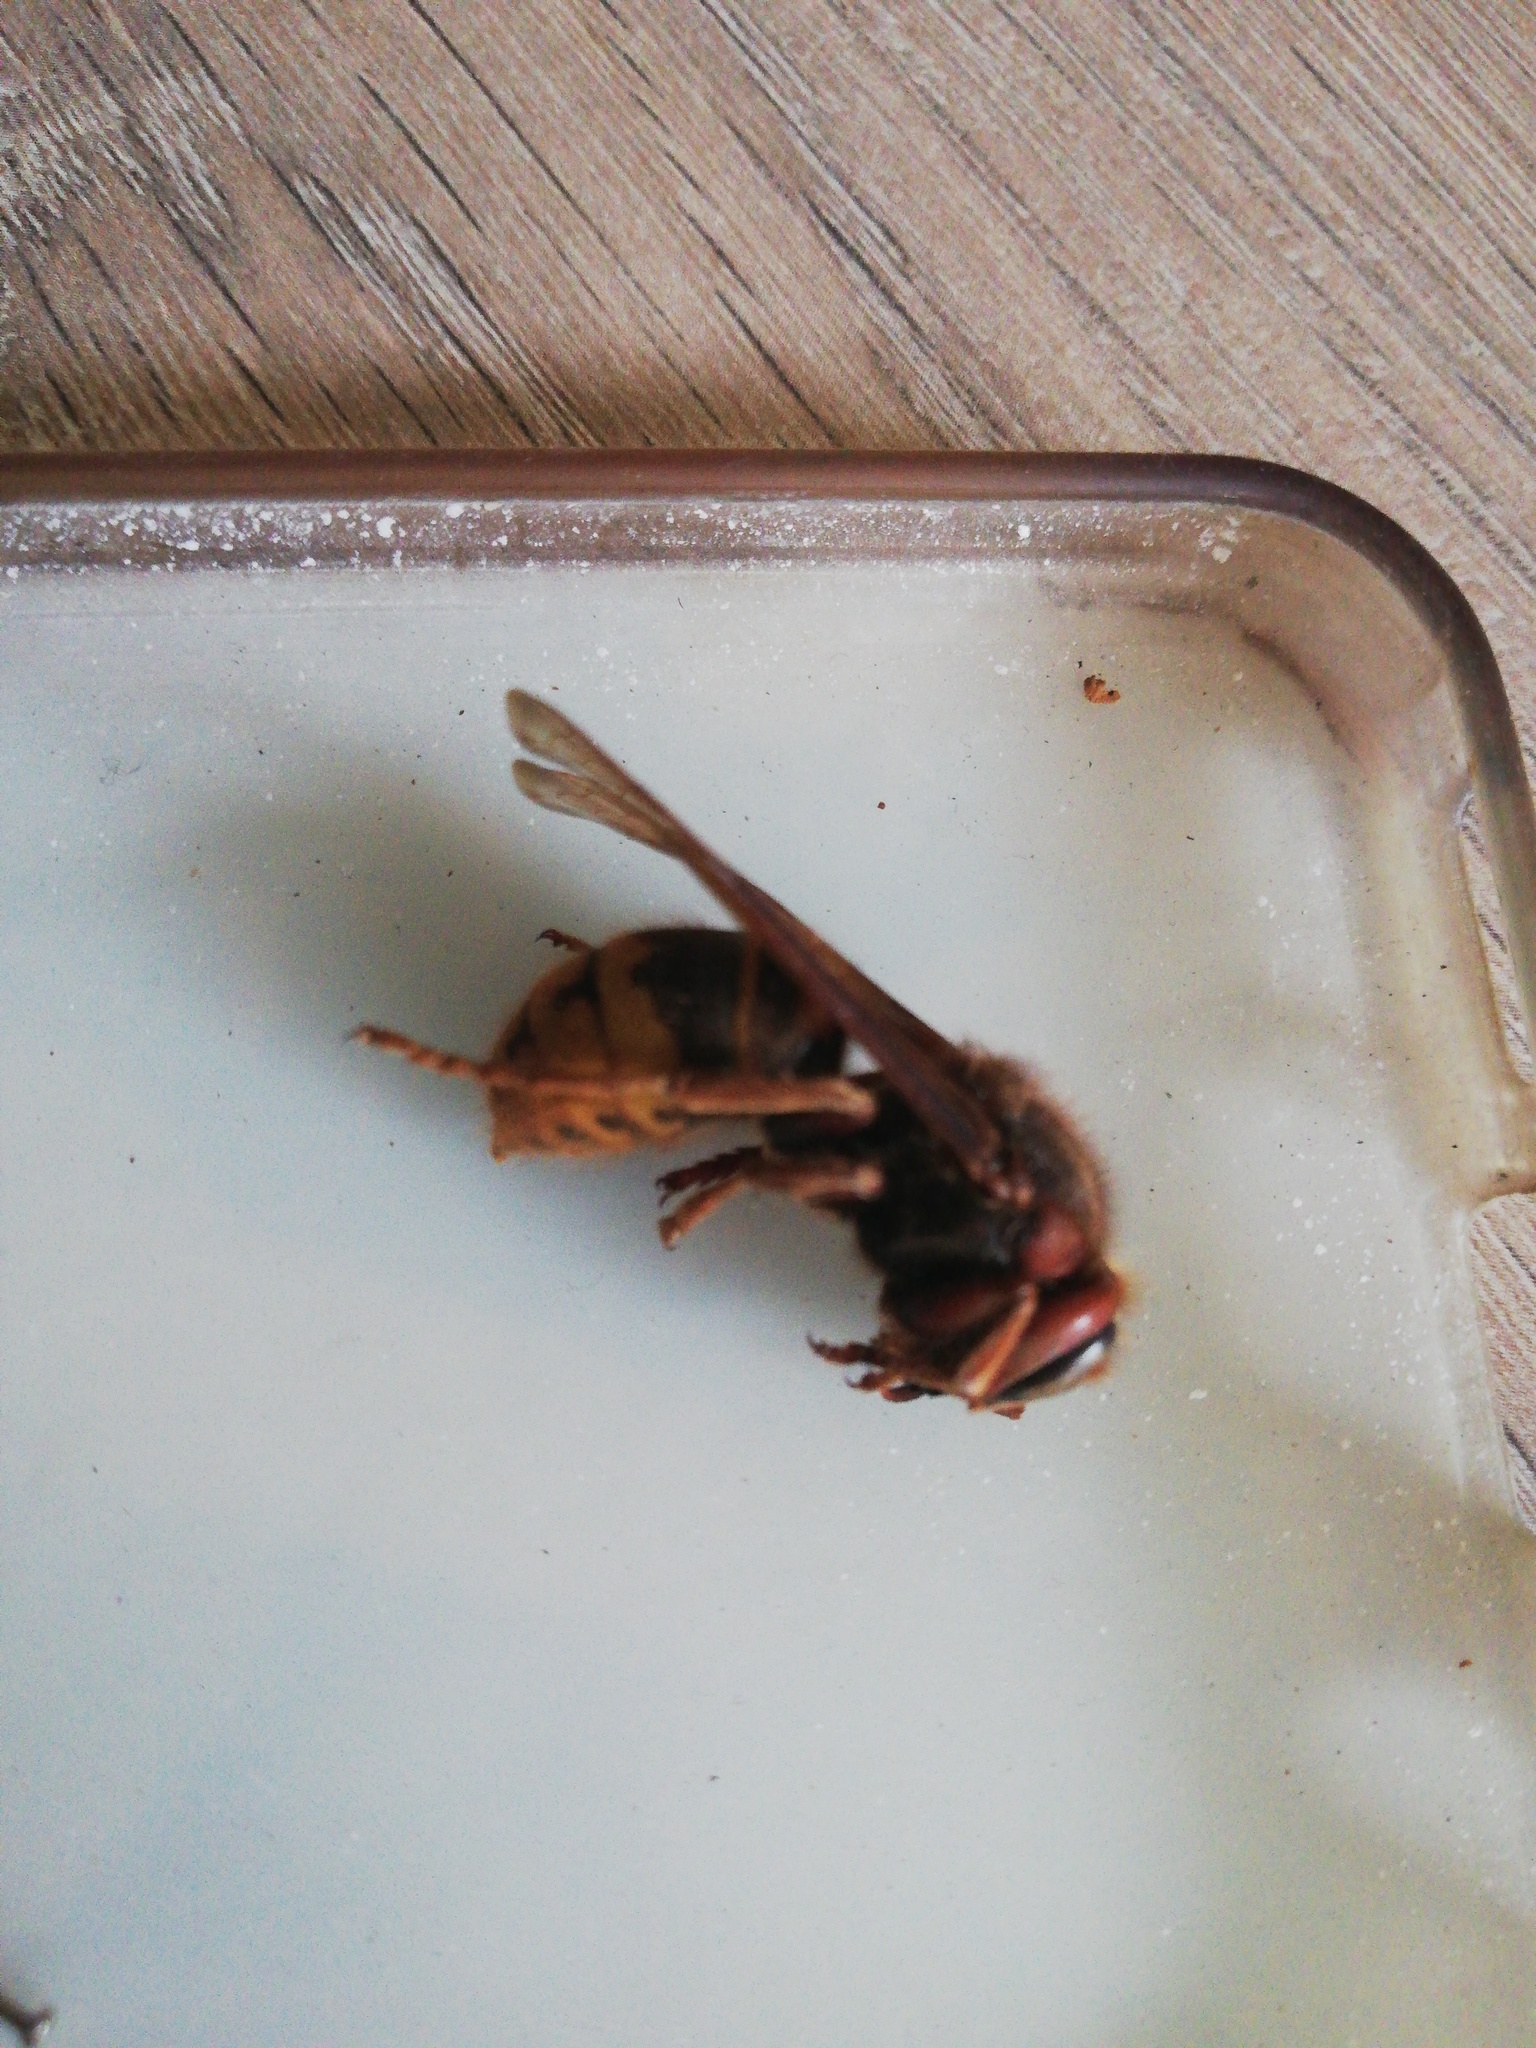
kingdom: Animalia
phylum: Arthropoda
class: Insecta
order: Hymenoptera
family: Vespidae
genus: Vespa
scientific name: Vespa crabro
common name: Hornet
